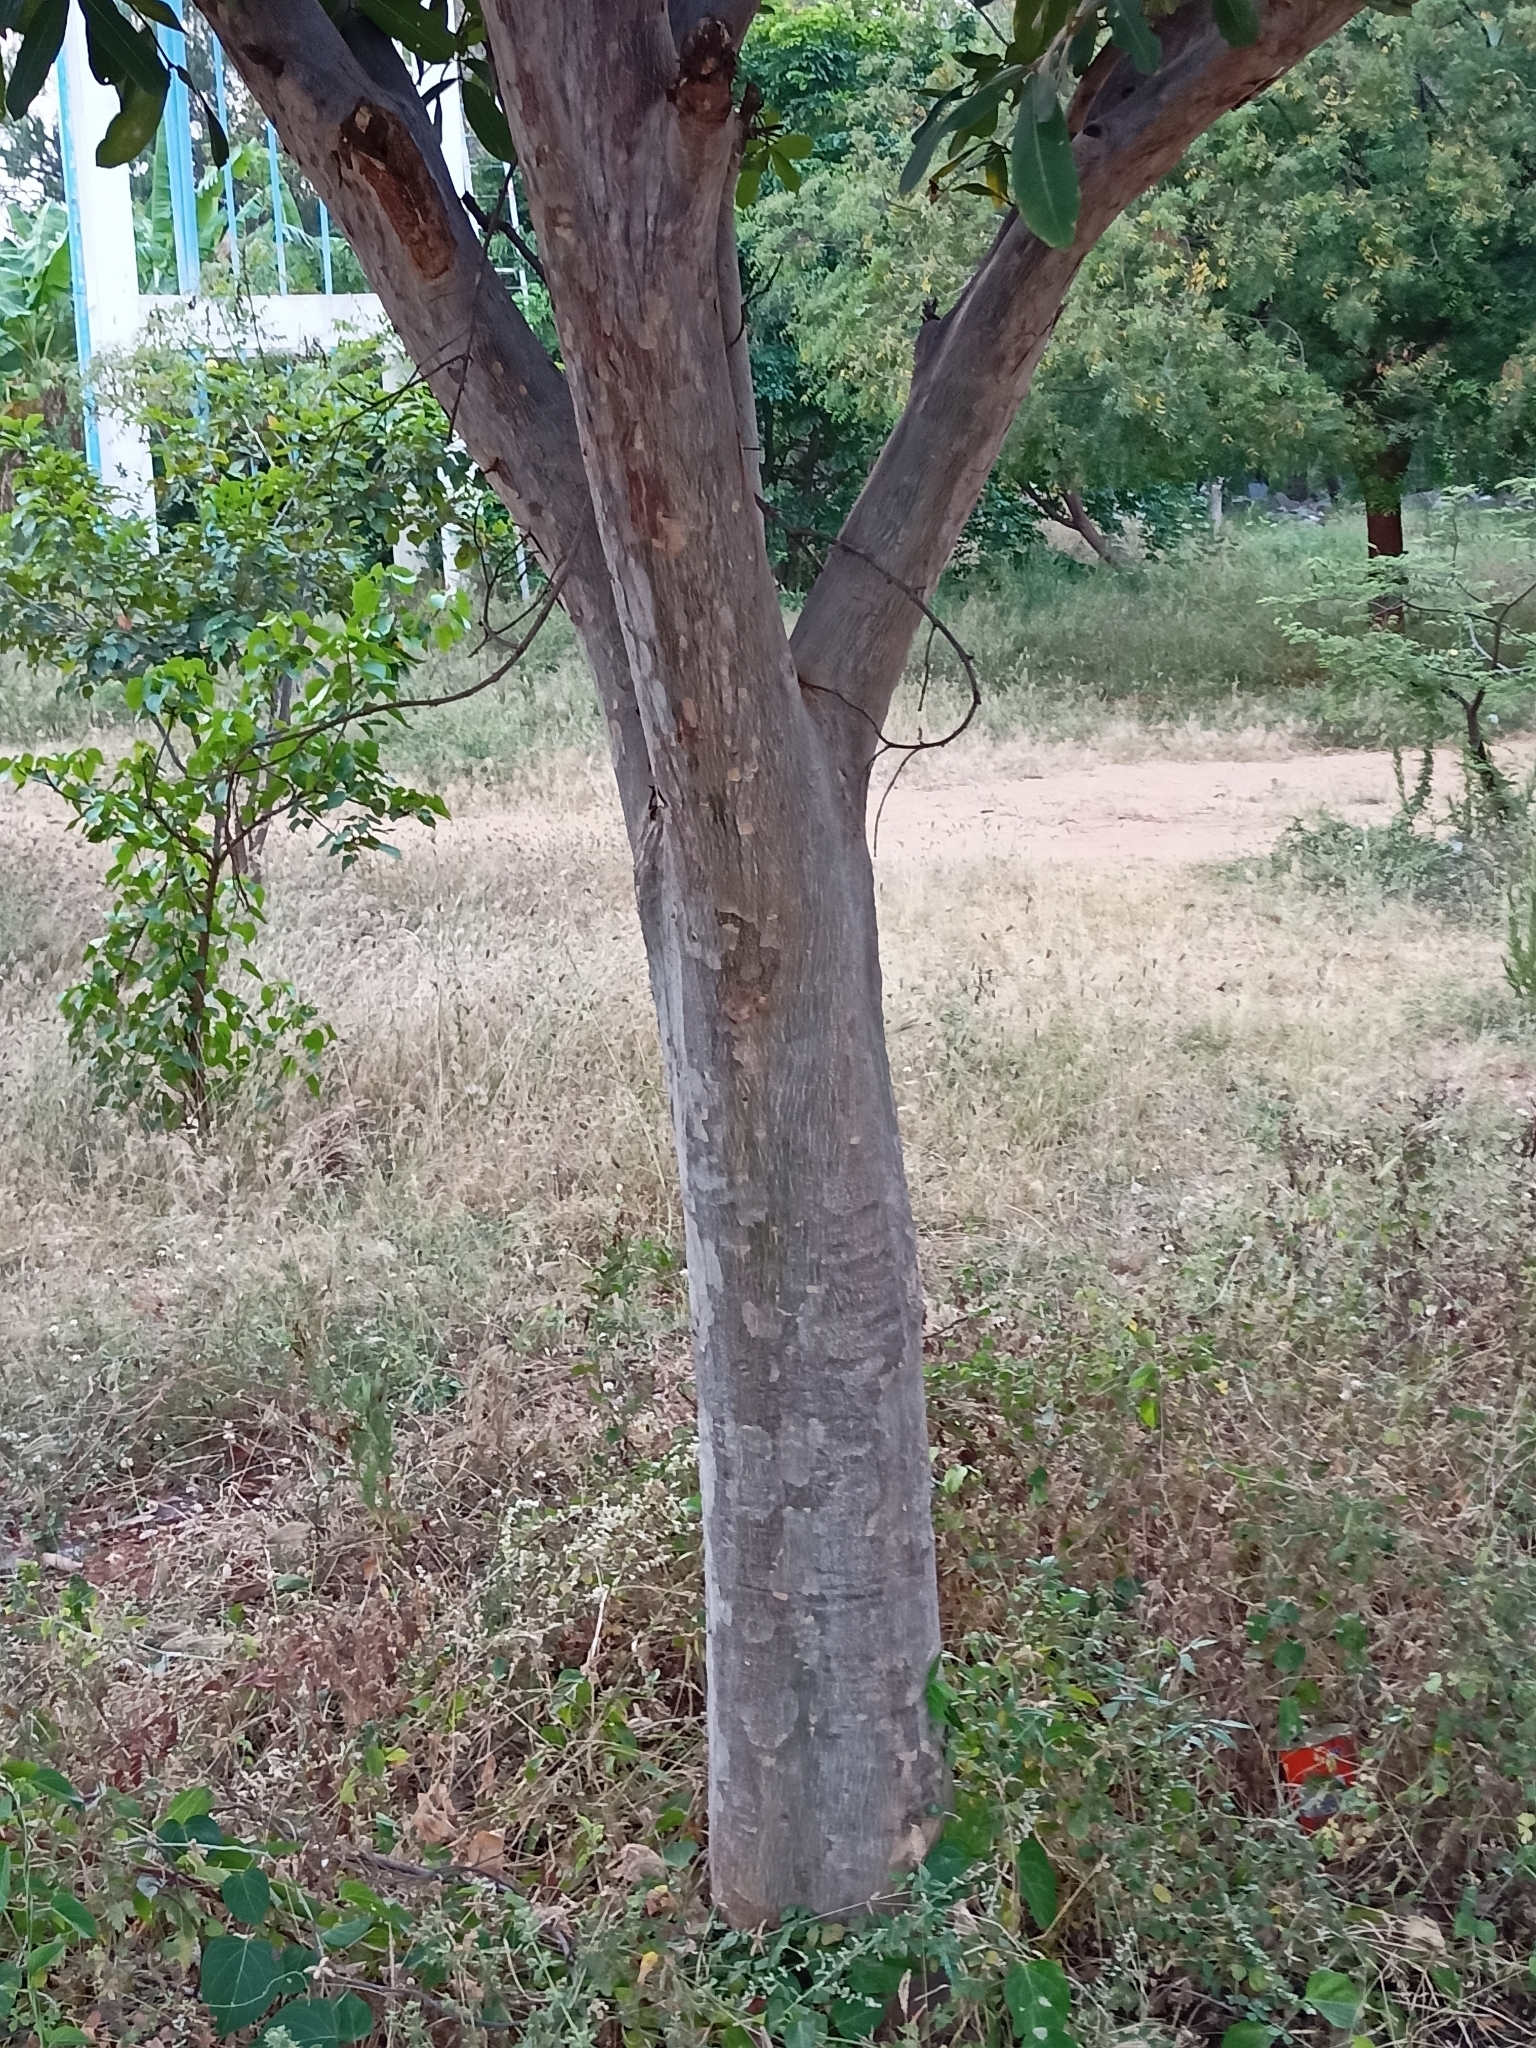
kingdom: Plantae
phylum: Tracheophyta
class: Magnoliopsida
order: Myrtales
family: Combretaceae
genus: Terminalia
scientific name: Terminalia arjuna
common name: Arjun
